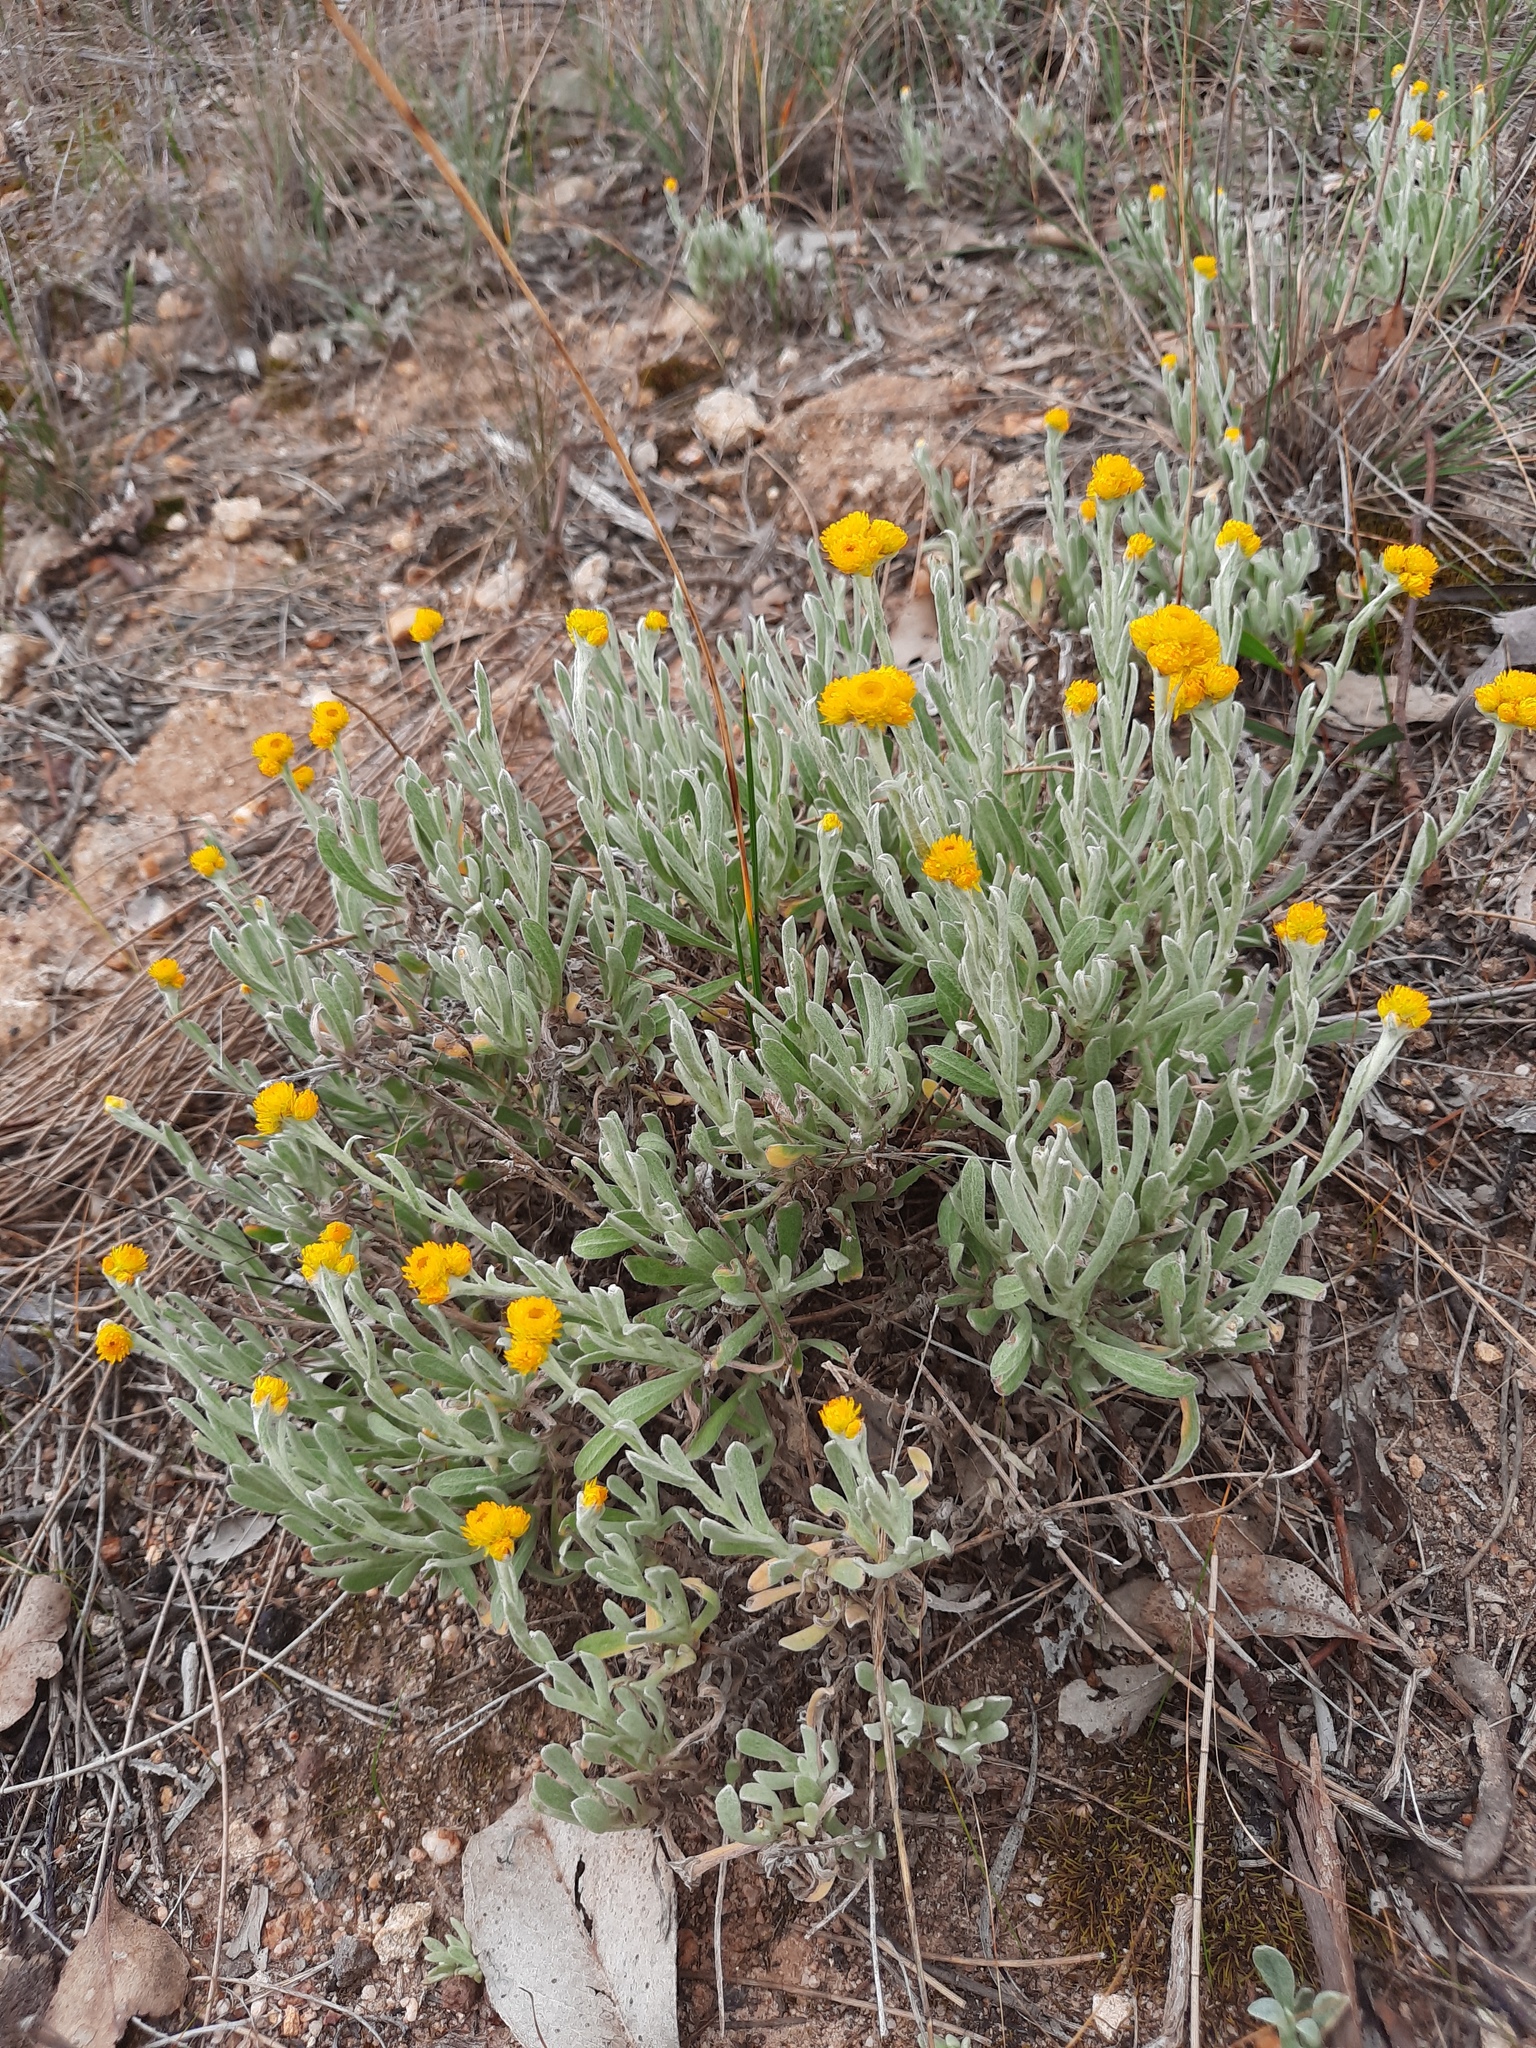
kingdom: Plantae
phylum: Tracheophyta
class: Magnoliopsida
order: Asterales
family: Asteraceae
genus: Chrysocephalum
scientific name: Chrysocephalum apiculatum
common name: Common everlasting
